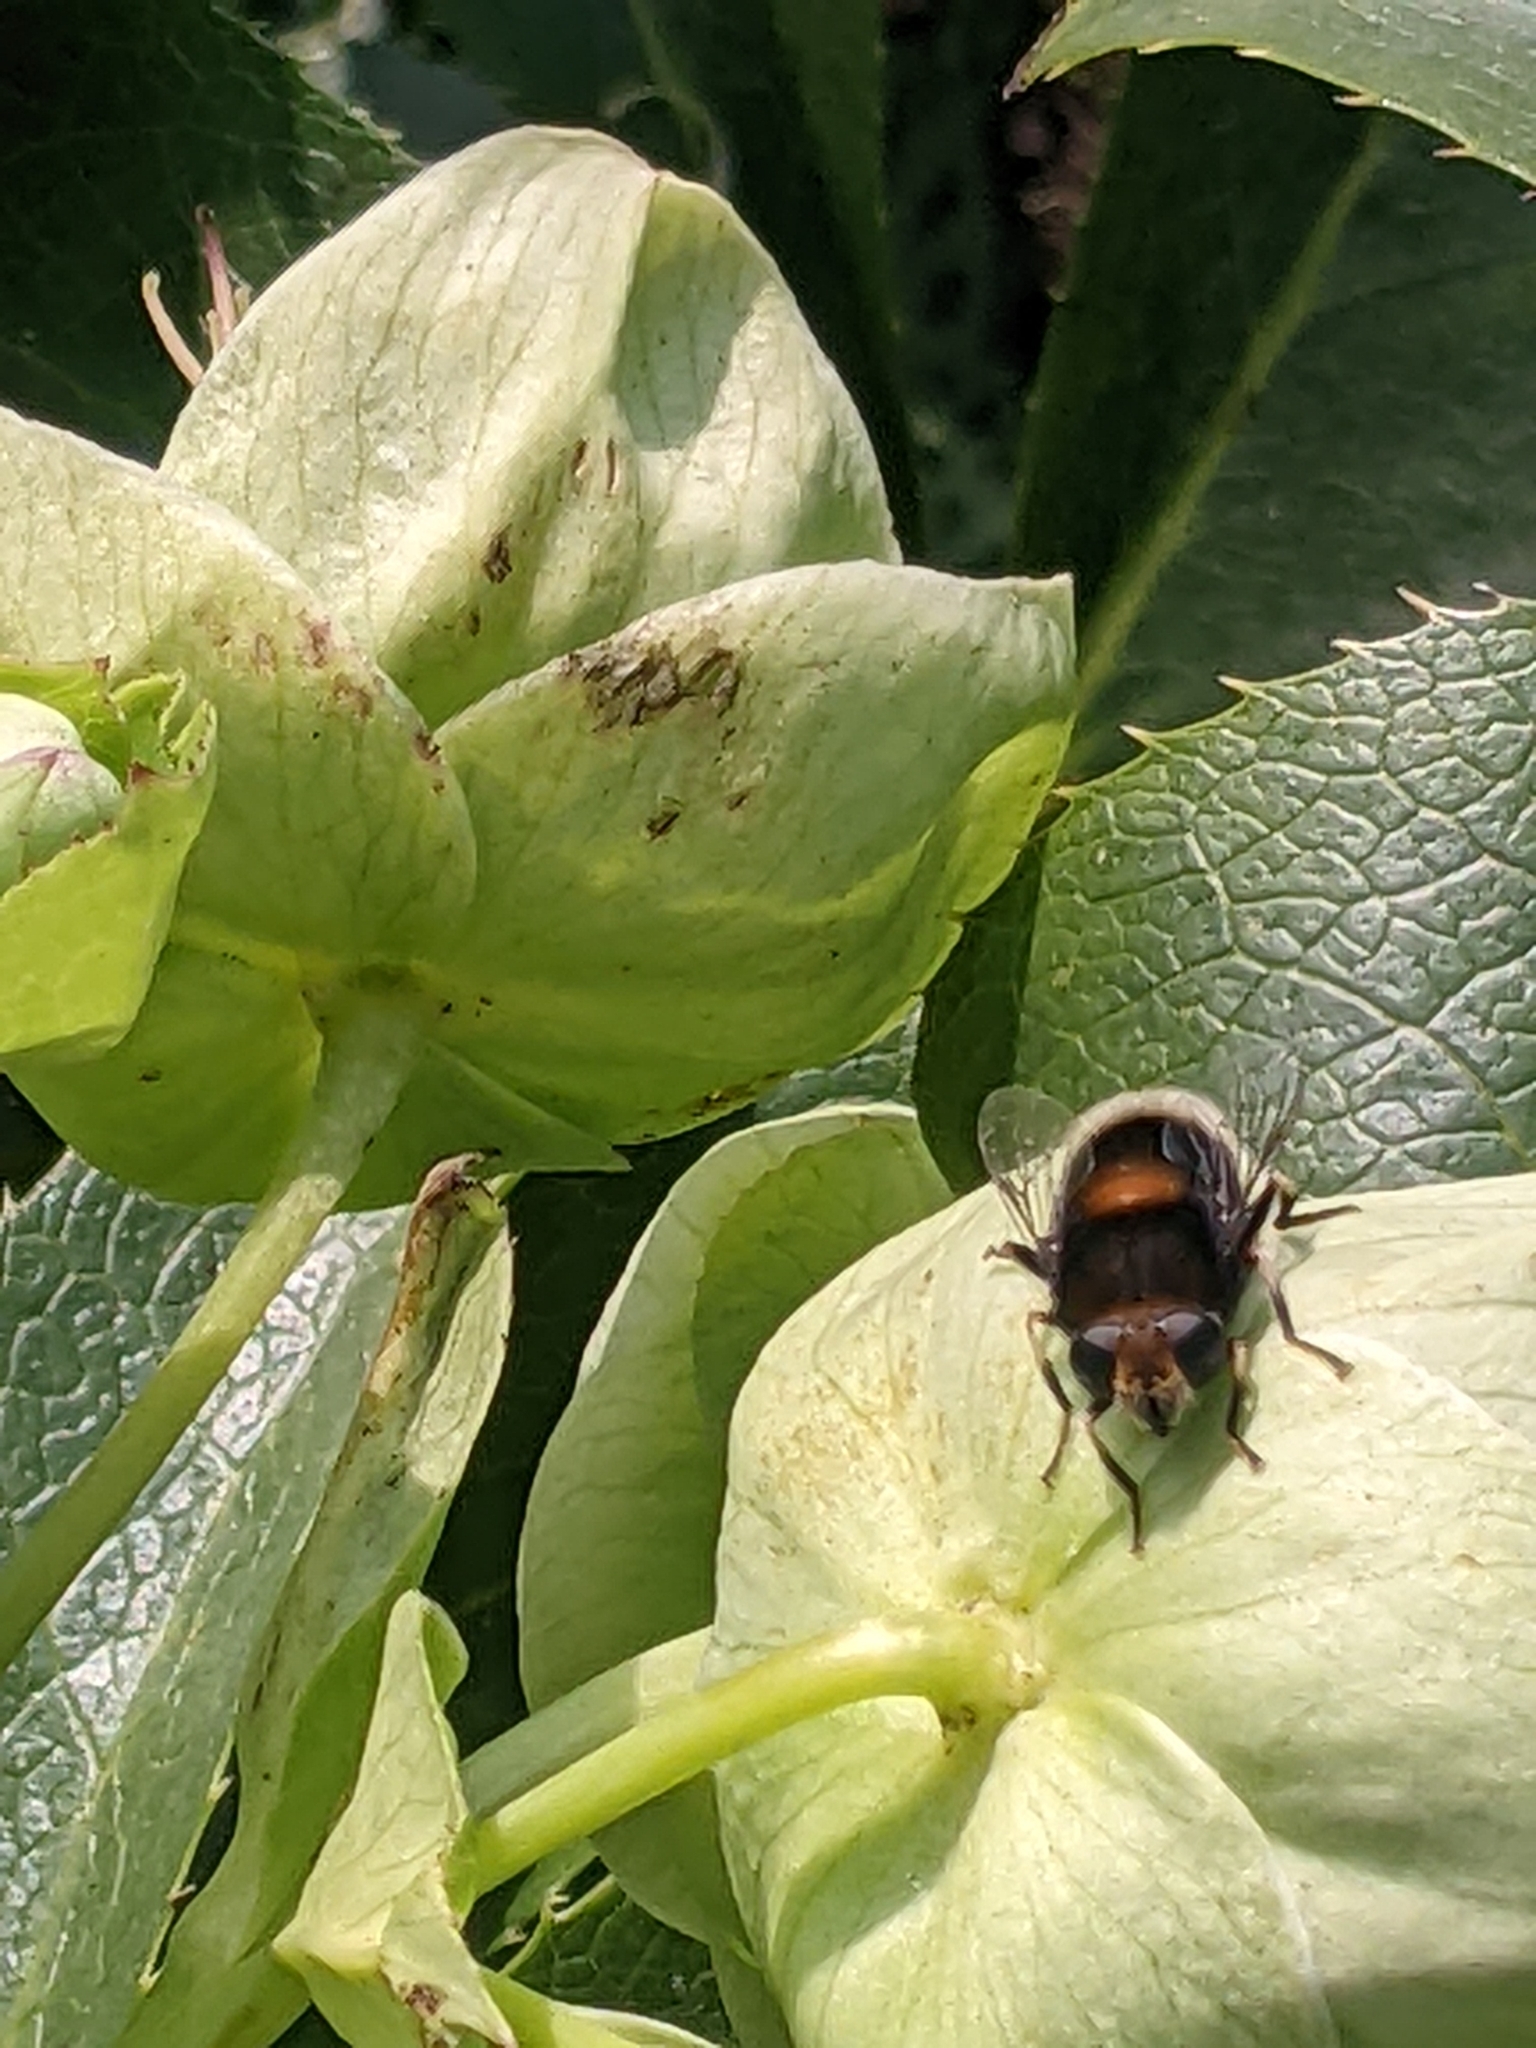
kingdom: Animalia
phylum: Arthropoda
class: Insecta
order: Diptera
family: Syrphidae
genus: Eristalis
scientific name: Eristalis intricaria
